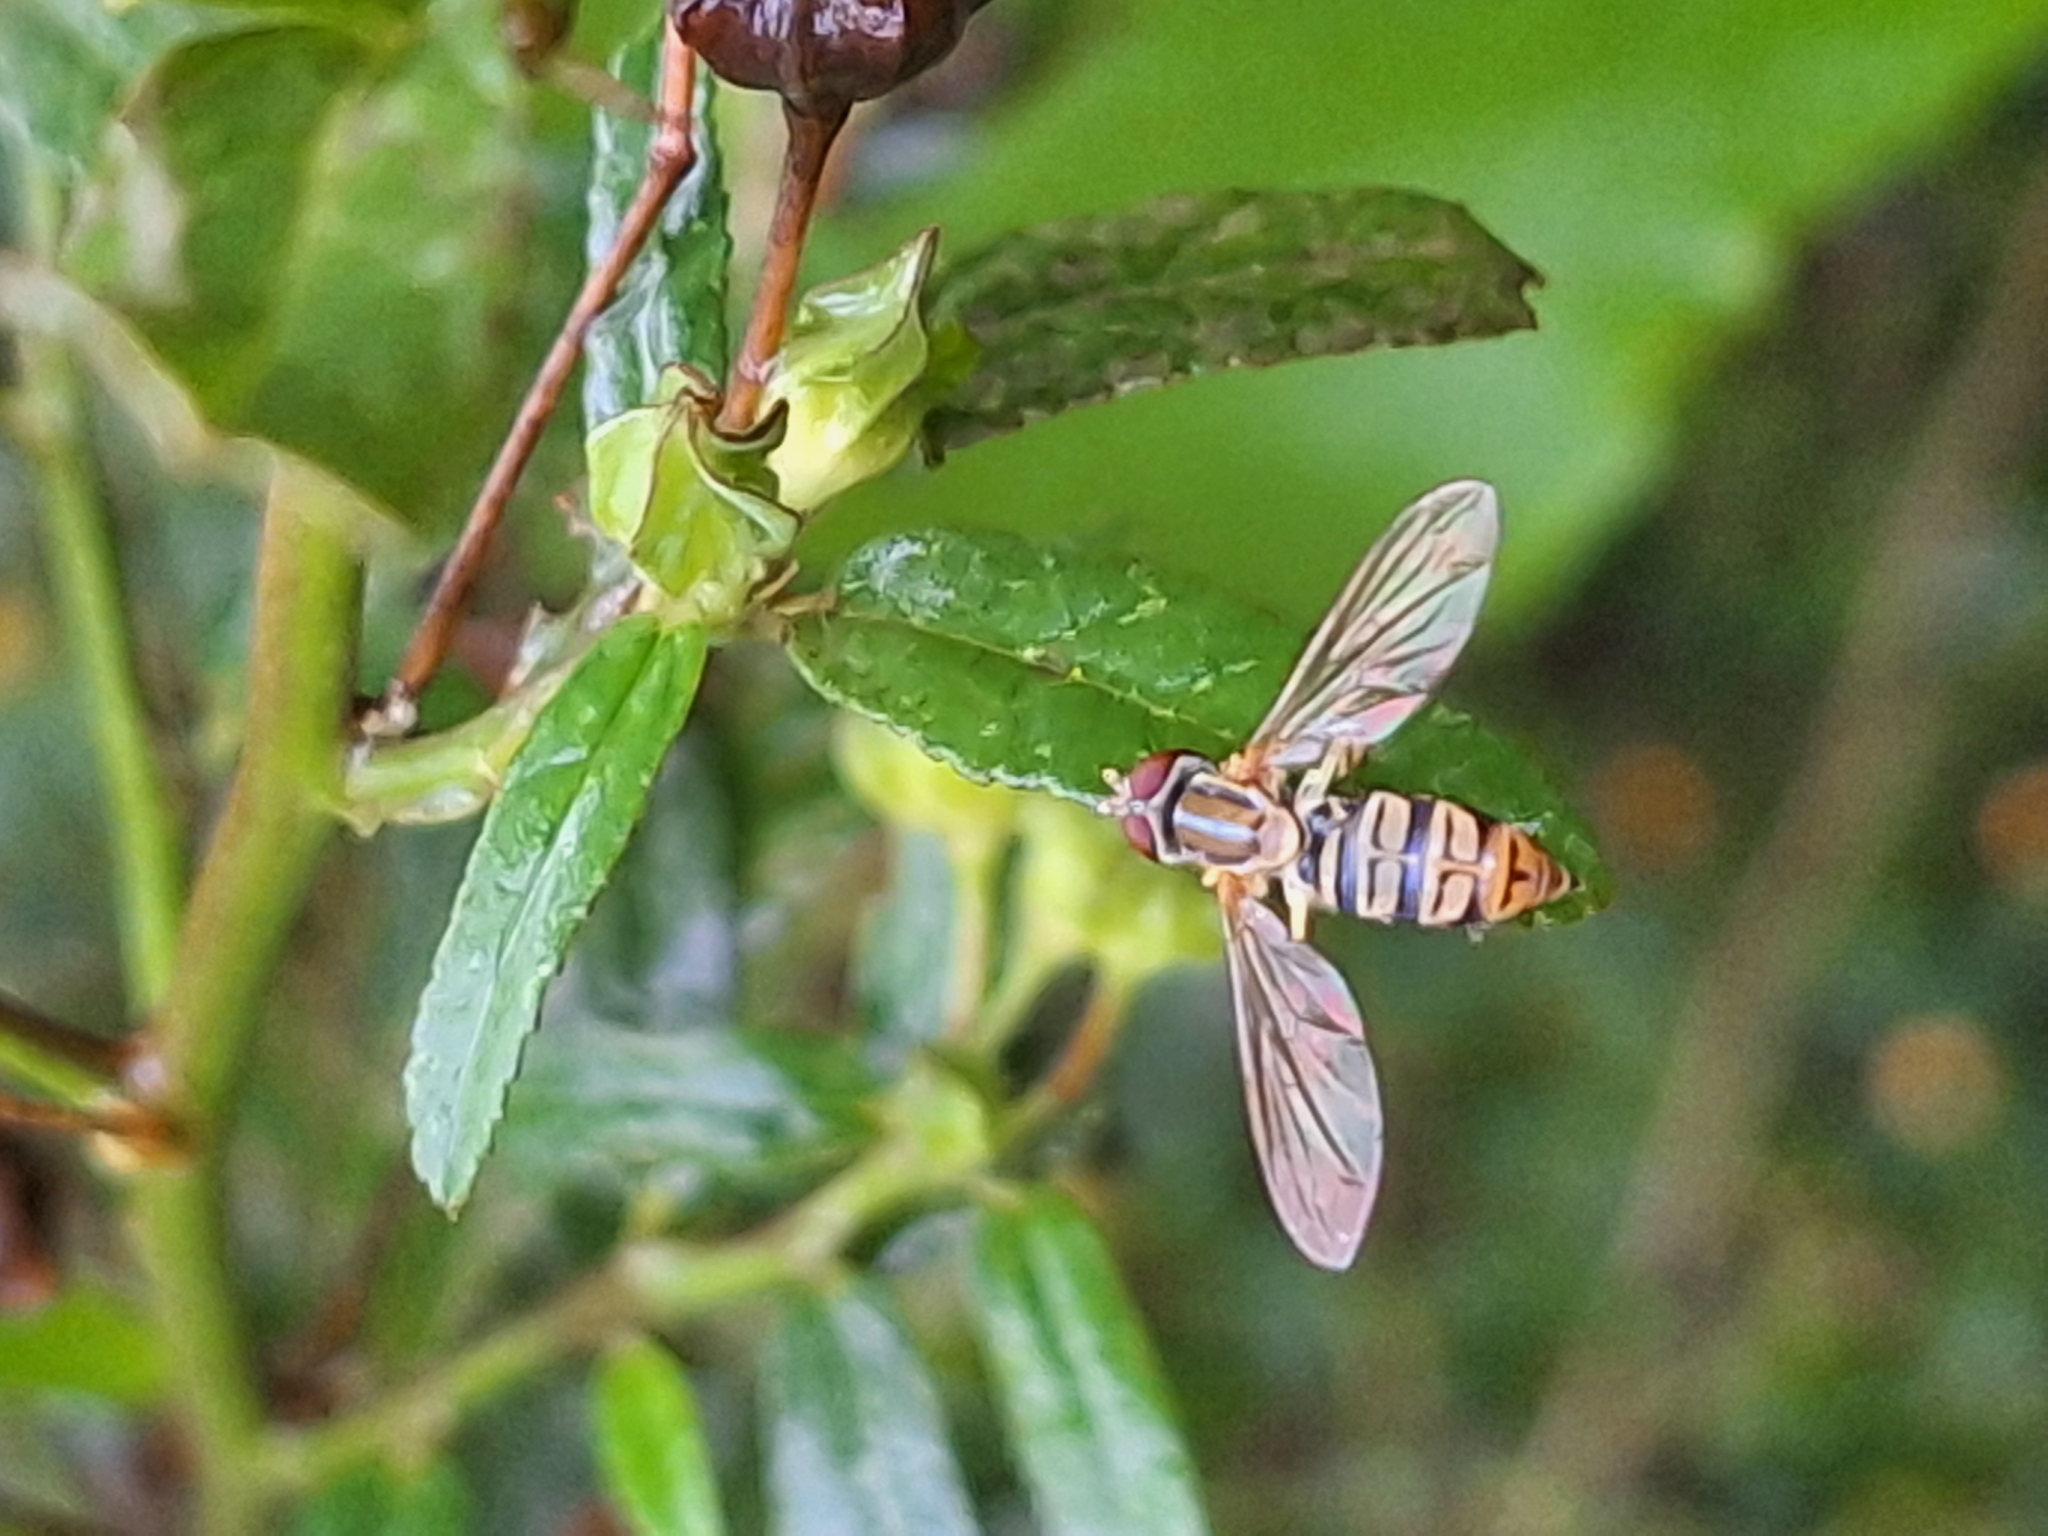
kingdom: Animalia
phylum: Arthropoda
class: Insecta
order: Diptera
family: Syrphidae
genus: Toxomerus
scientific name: Toxomerus politus
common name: Maize calligrapher
